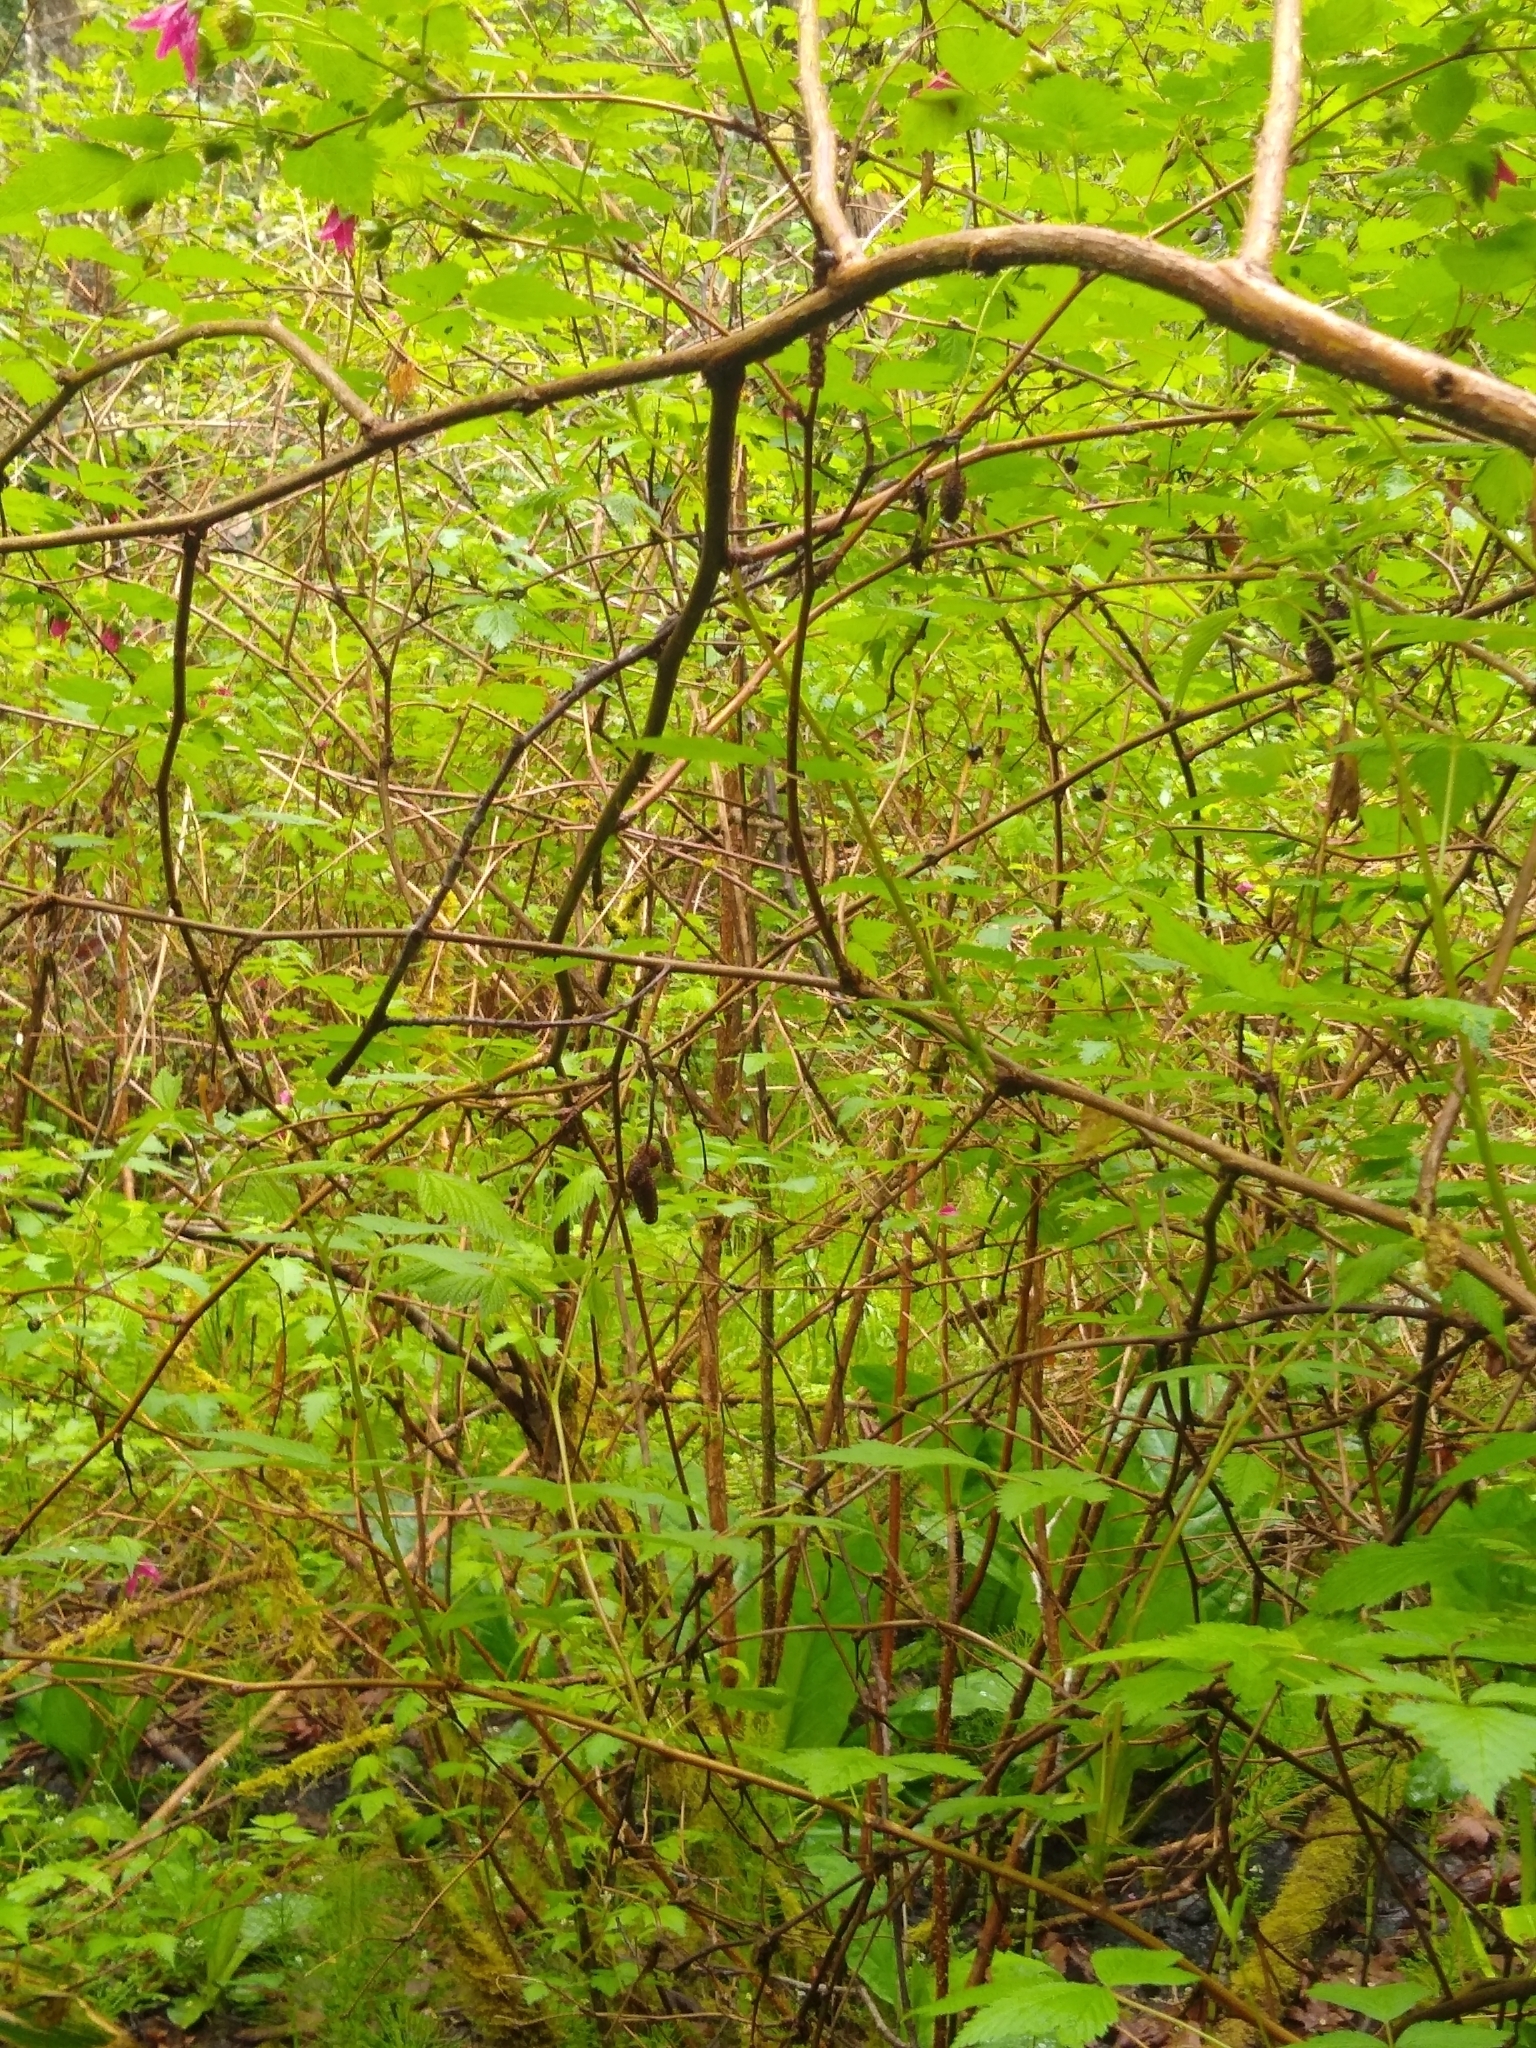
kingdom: Plantae
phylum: Tracheophyta
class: Magnoliopsida
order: Rosales
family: Rosaceae
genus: Rubus
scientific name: Rubus spectabilis
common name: Salmonberry
